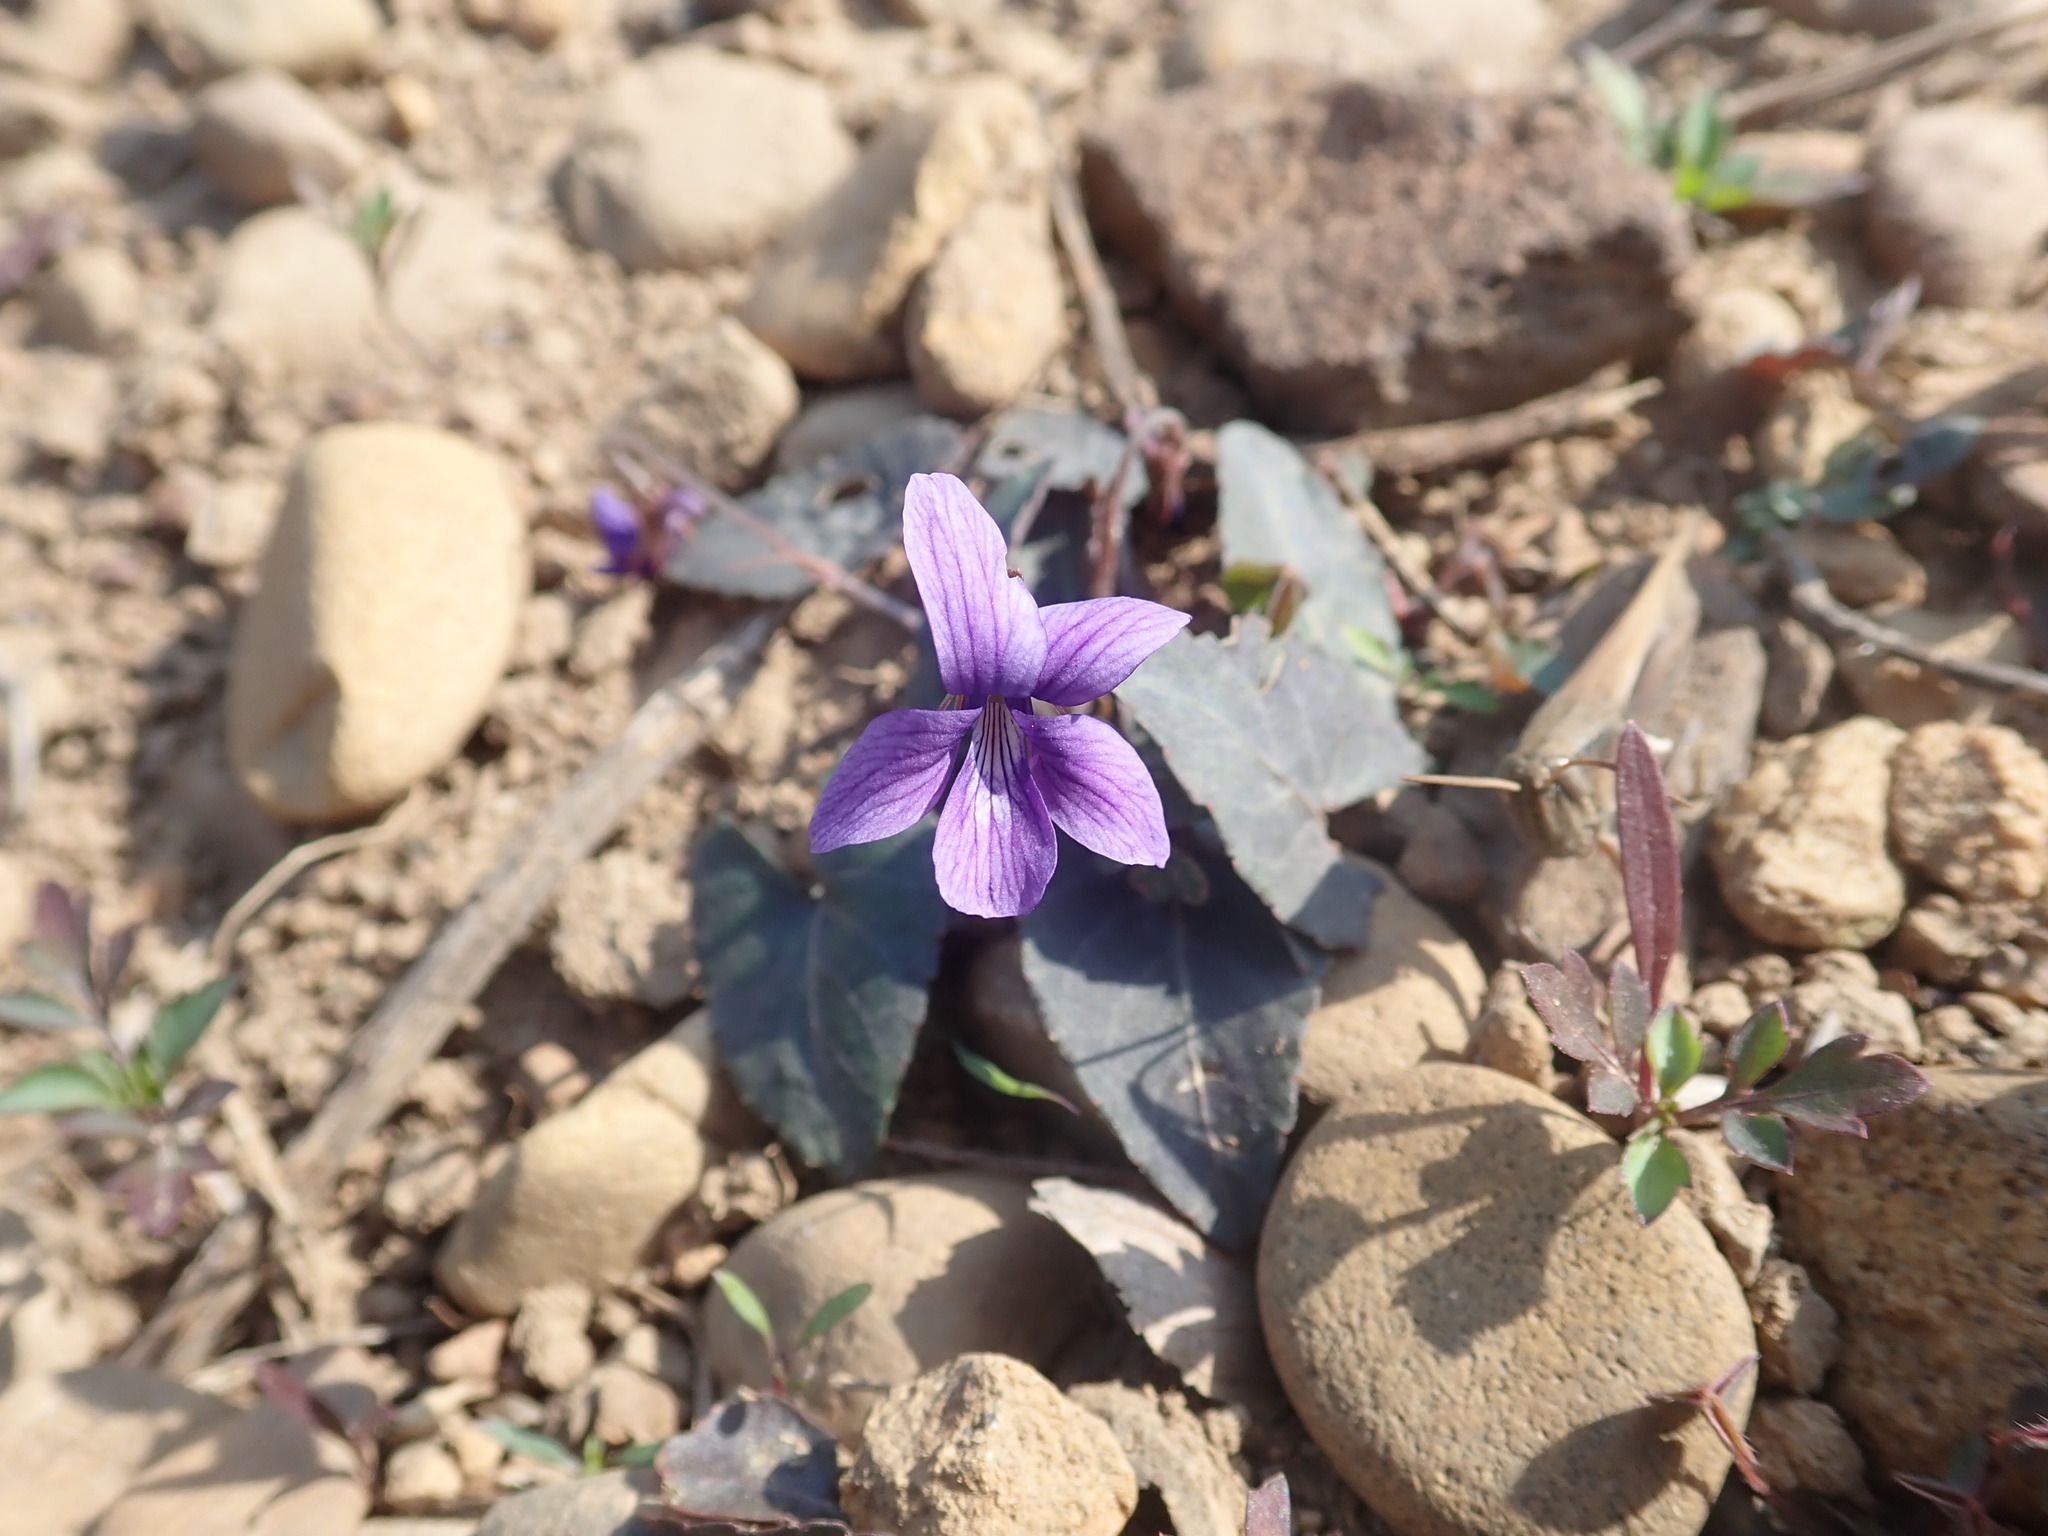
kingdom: Plantae
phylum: Tracheophyta
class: Magnoliopsida
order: Malpighiales
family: Violaceae
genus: Viola
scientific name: Viola
